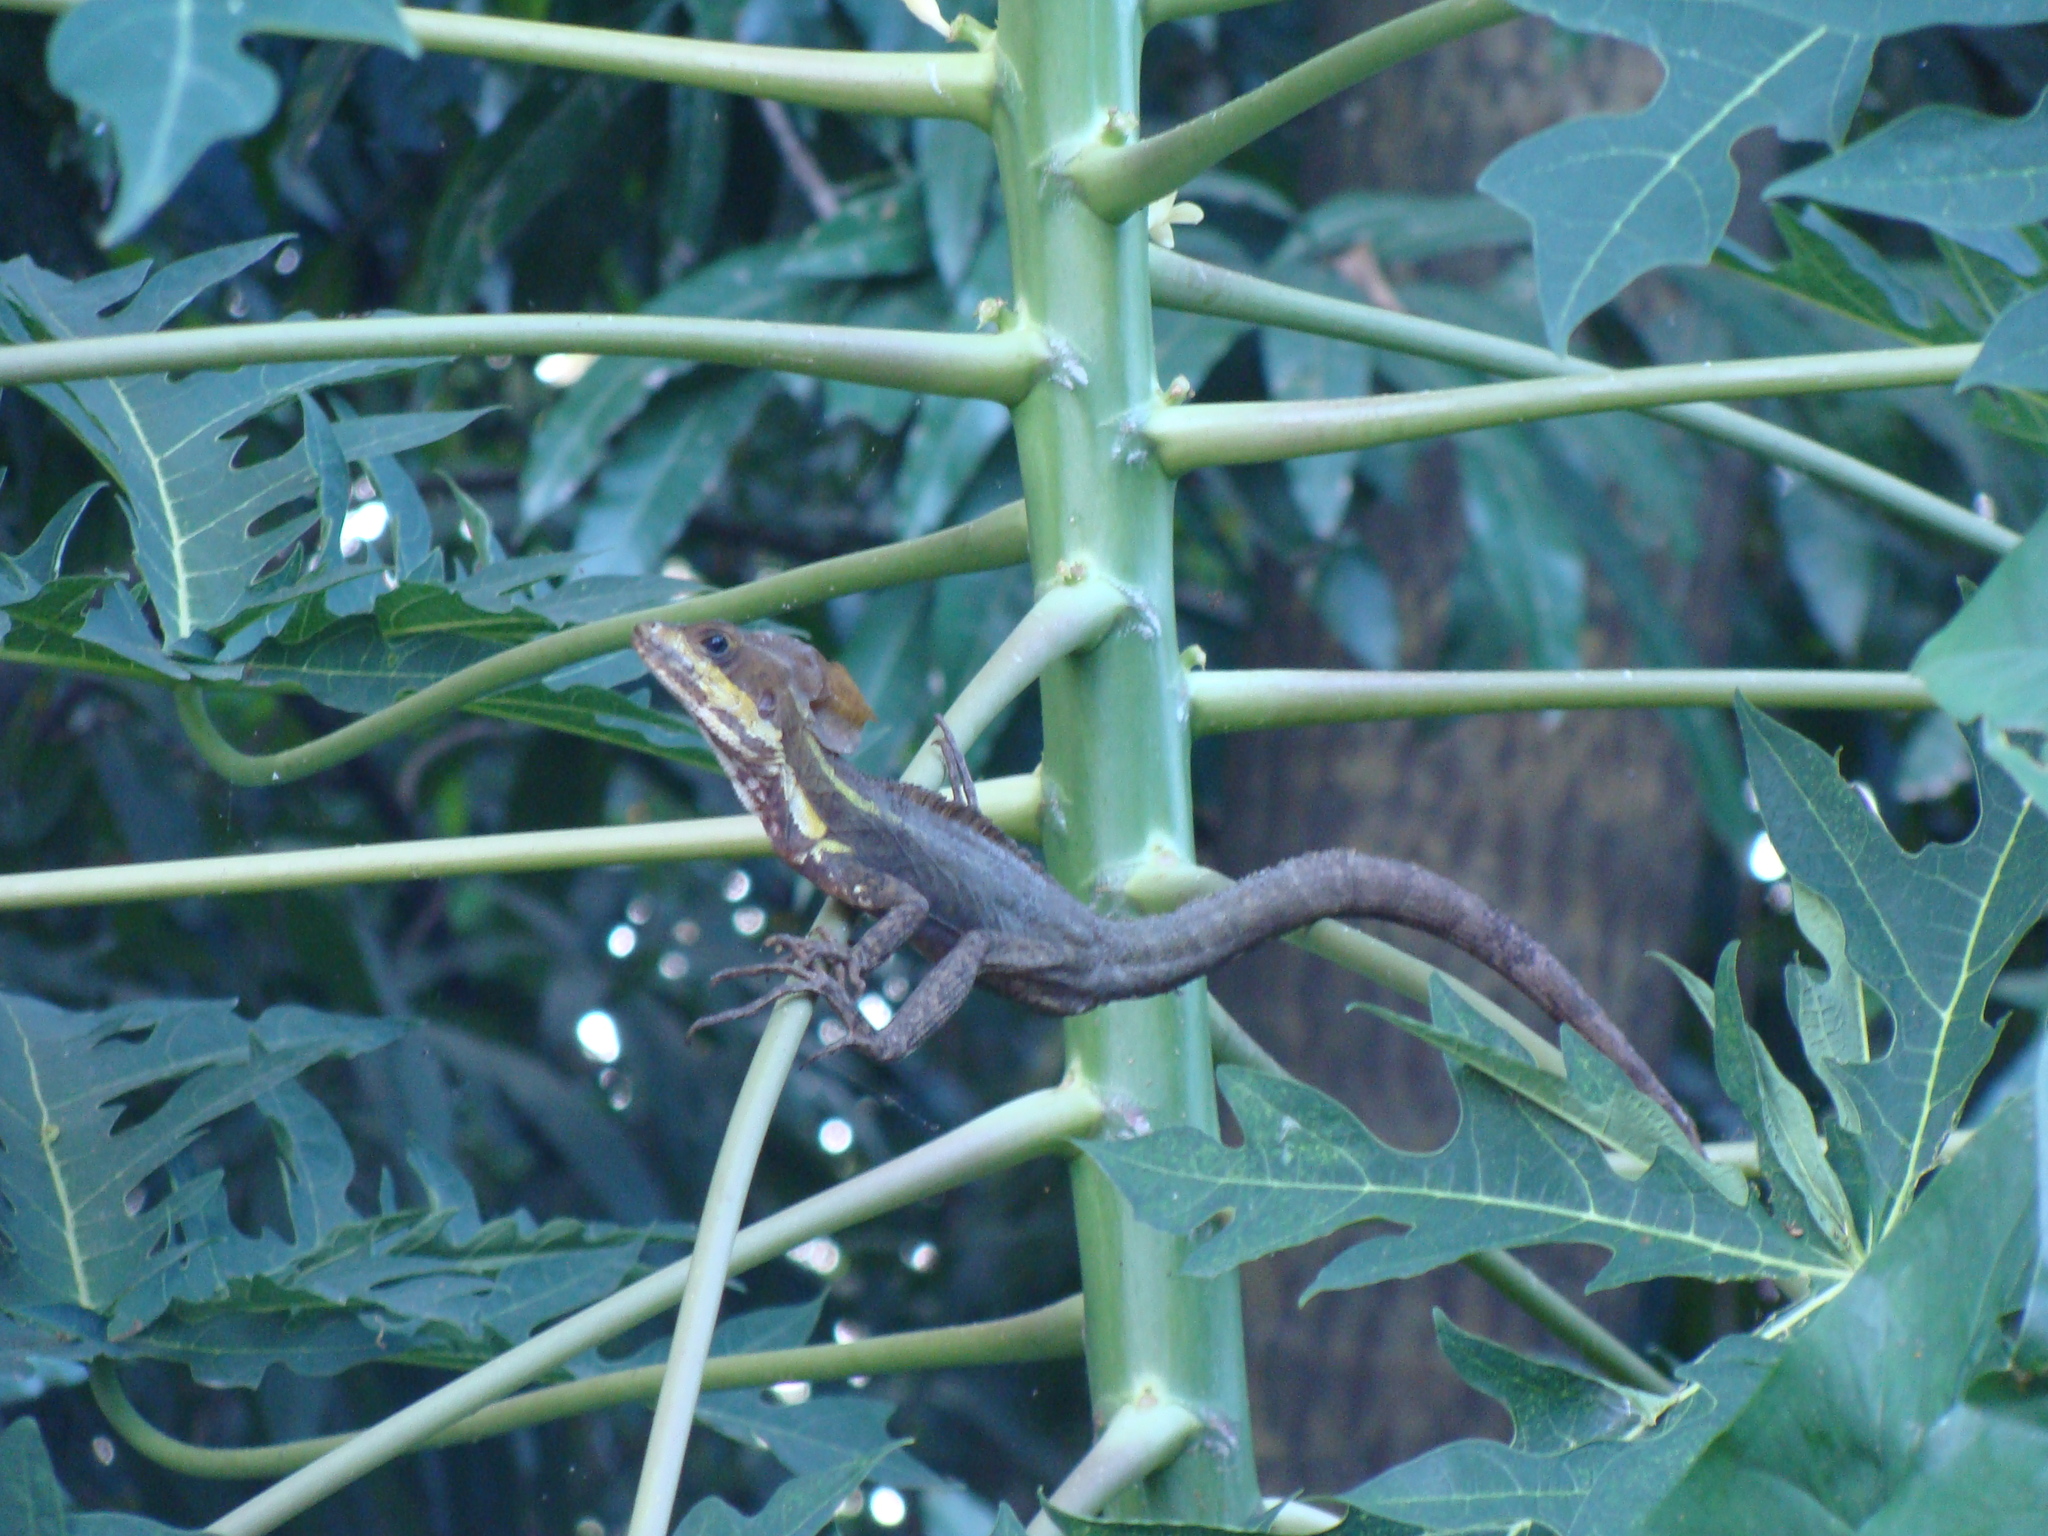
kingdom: Animalia
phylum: Chordata
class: Squamata
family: Corytophanidae
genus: Basiliscus
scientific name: Basiliscus vittatus
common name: Brown basilisk
